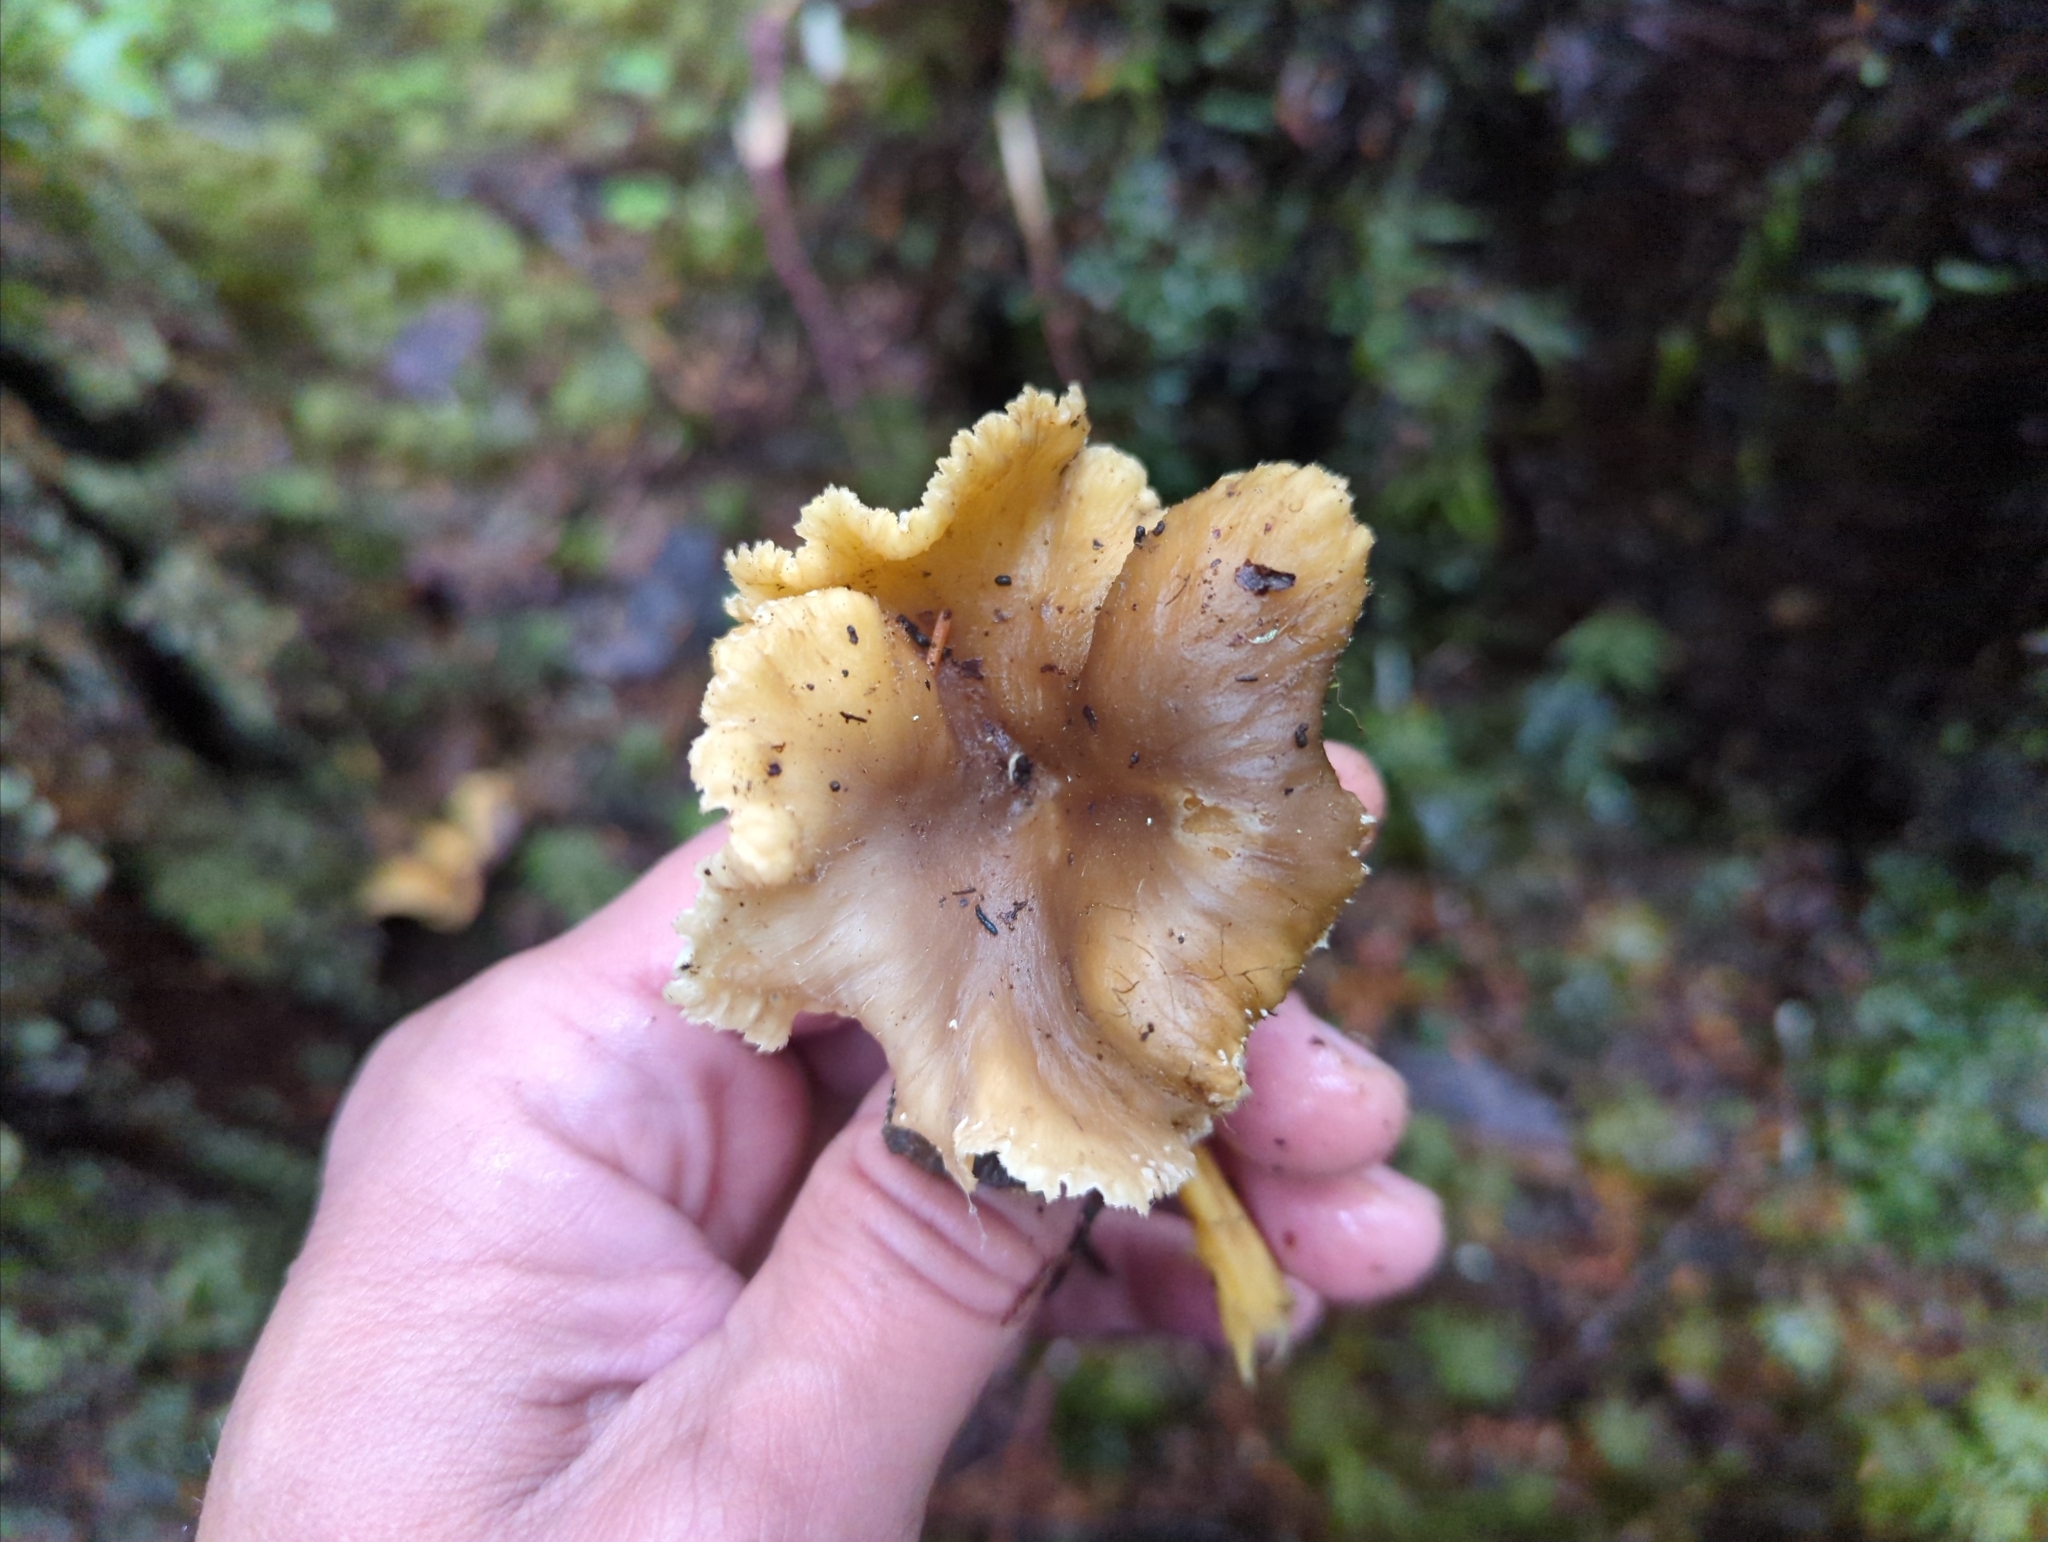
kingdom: Fungi
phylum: Basidiomycota
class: Agaricomycetes
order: Cantharellales
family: Hydnaceae
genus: Craterellus
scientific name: Craterellus tubaeformis
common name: Yellowfoot
